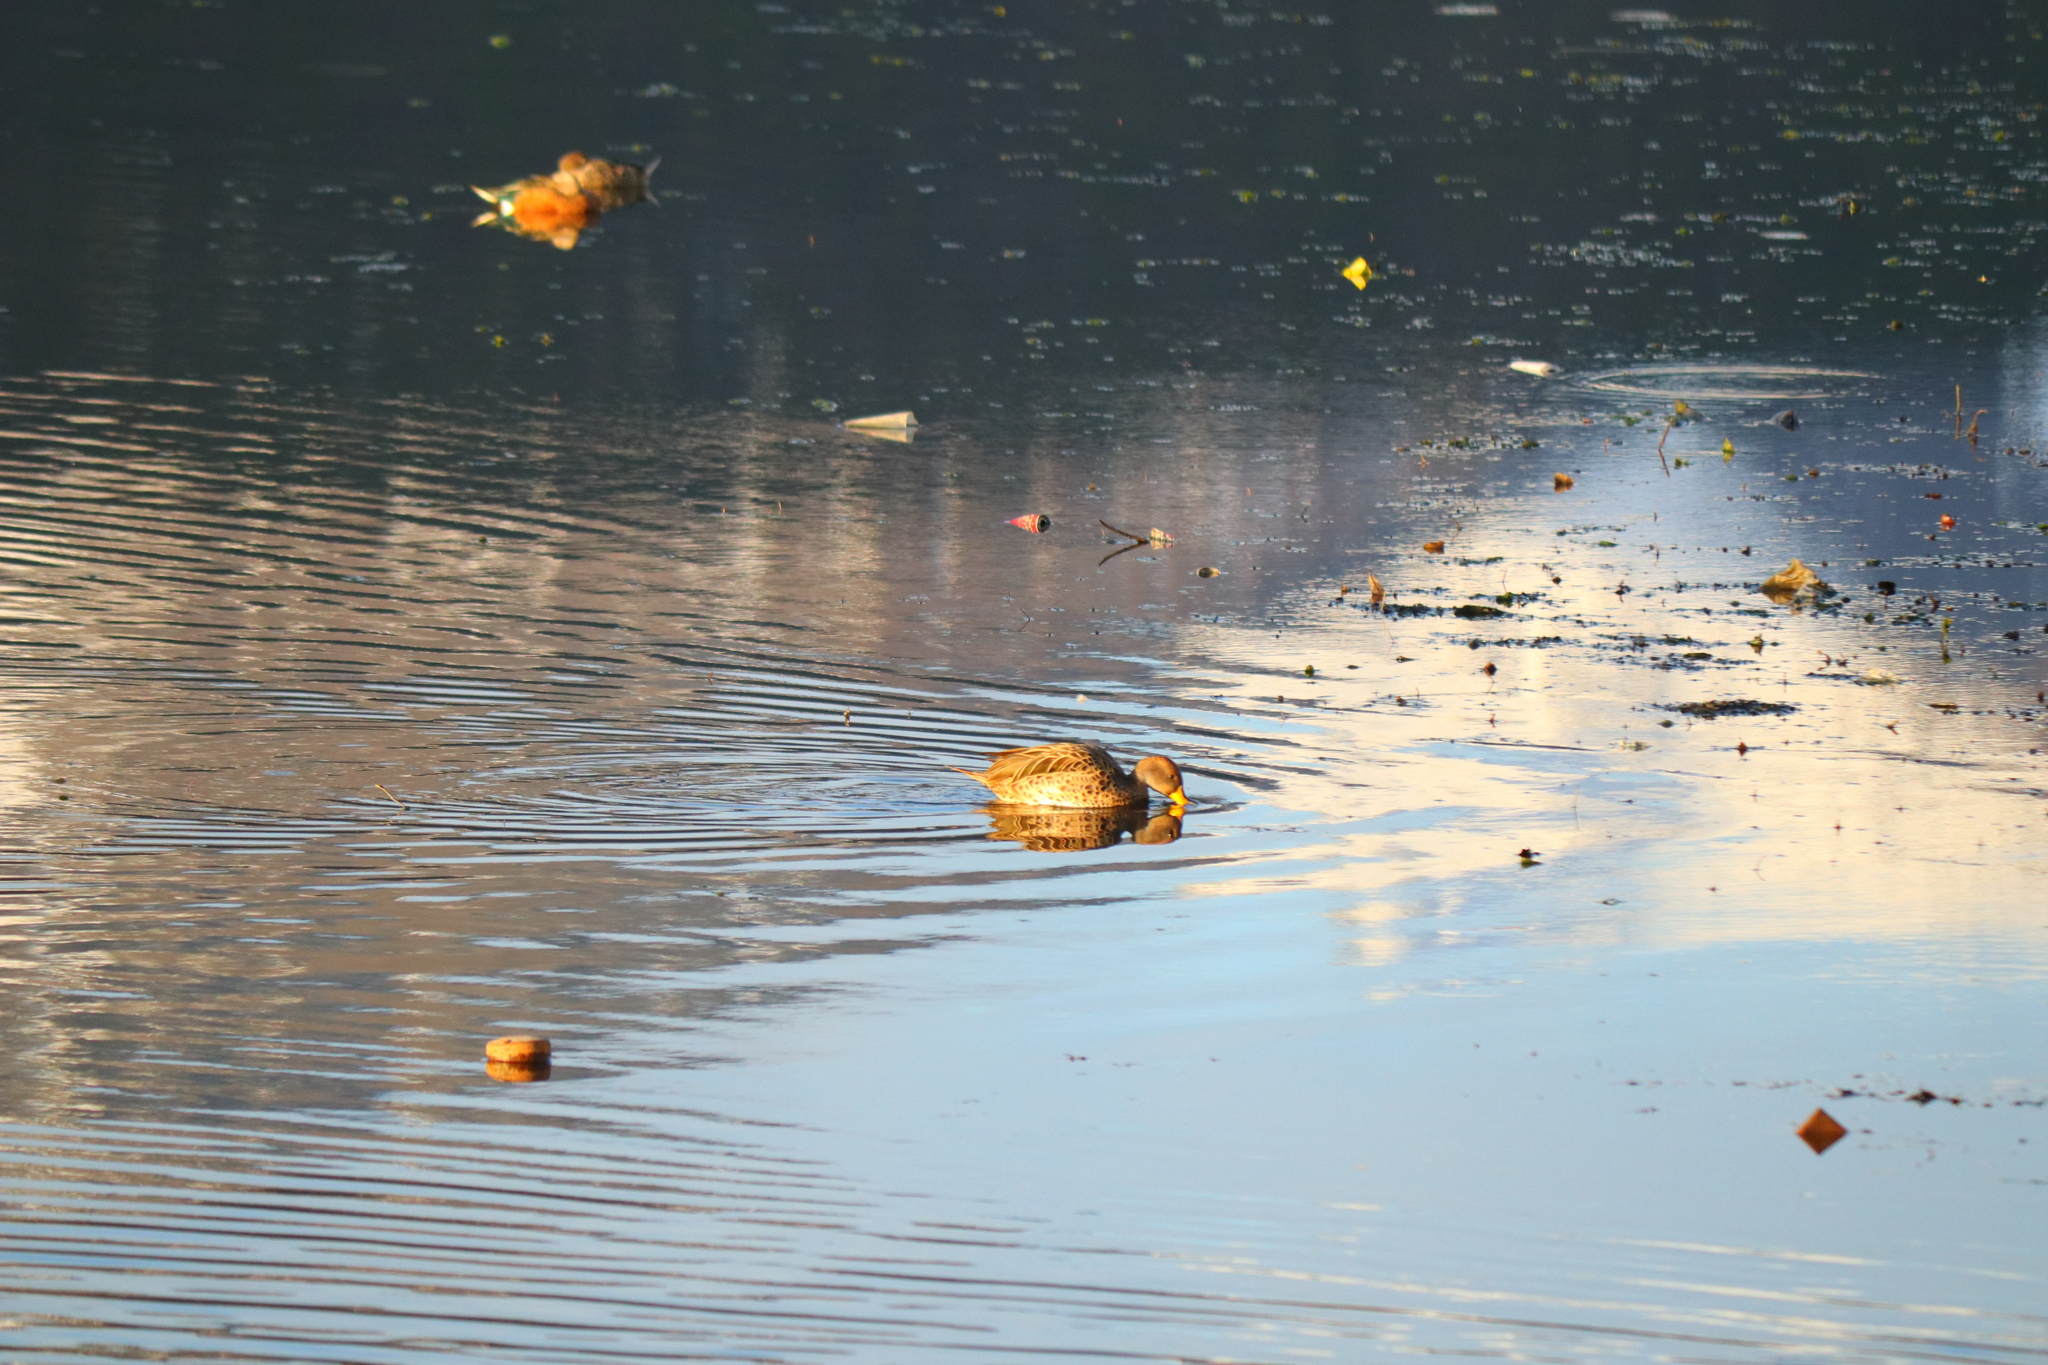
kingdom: Animalia
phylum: Chordata
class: Aves
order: Anseriformes
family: Anatidae
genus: Anas
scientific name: Anas georgica
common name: Yellow-billed pintail
